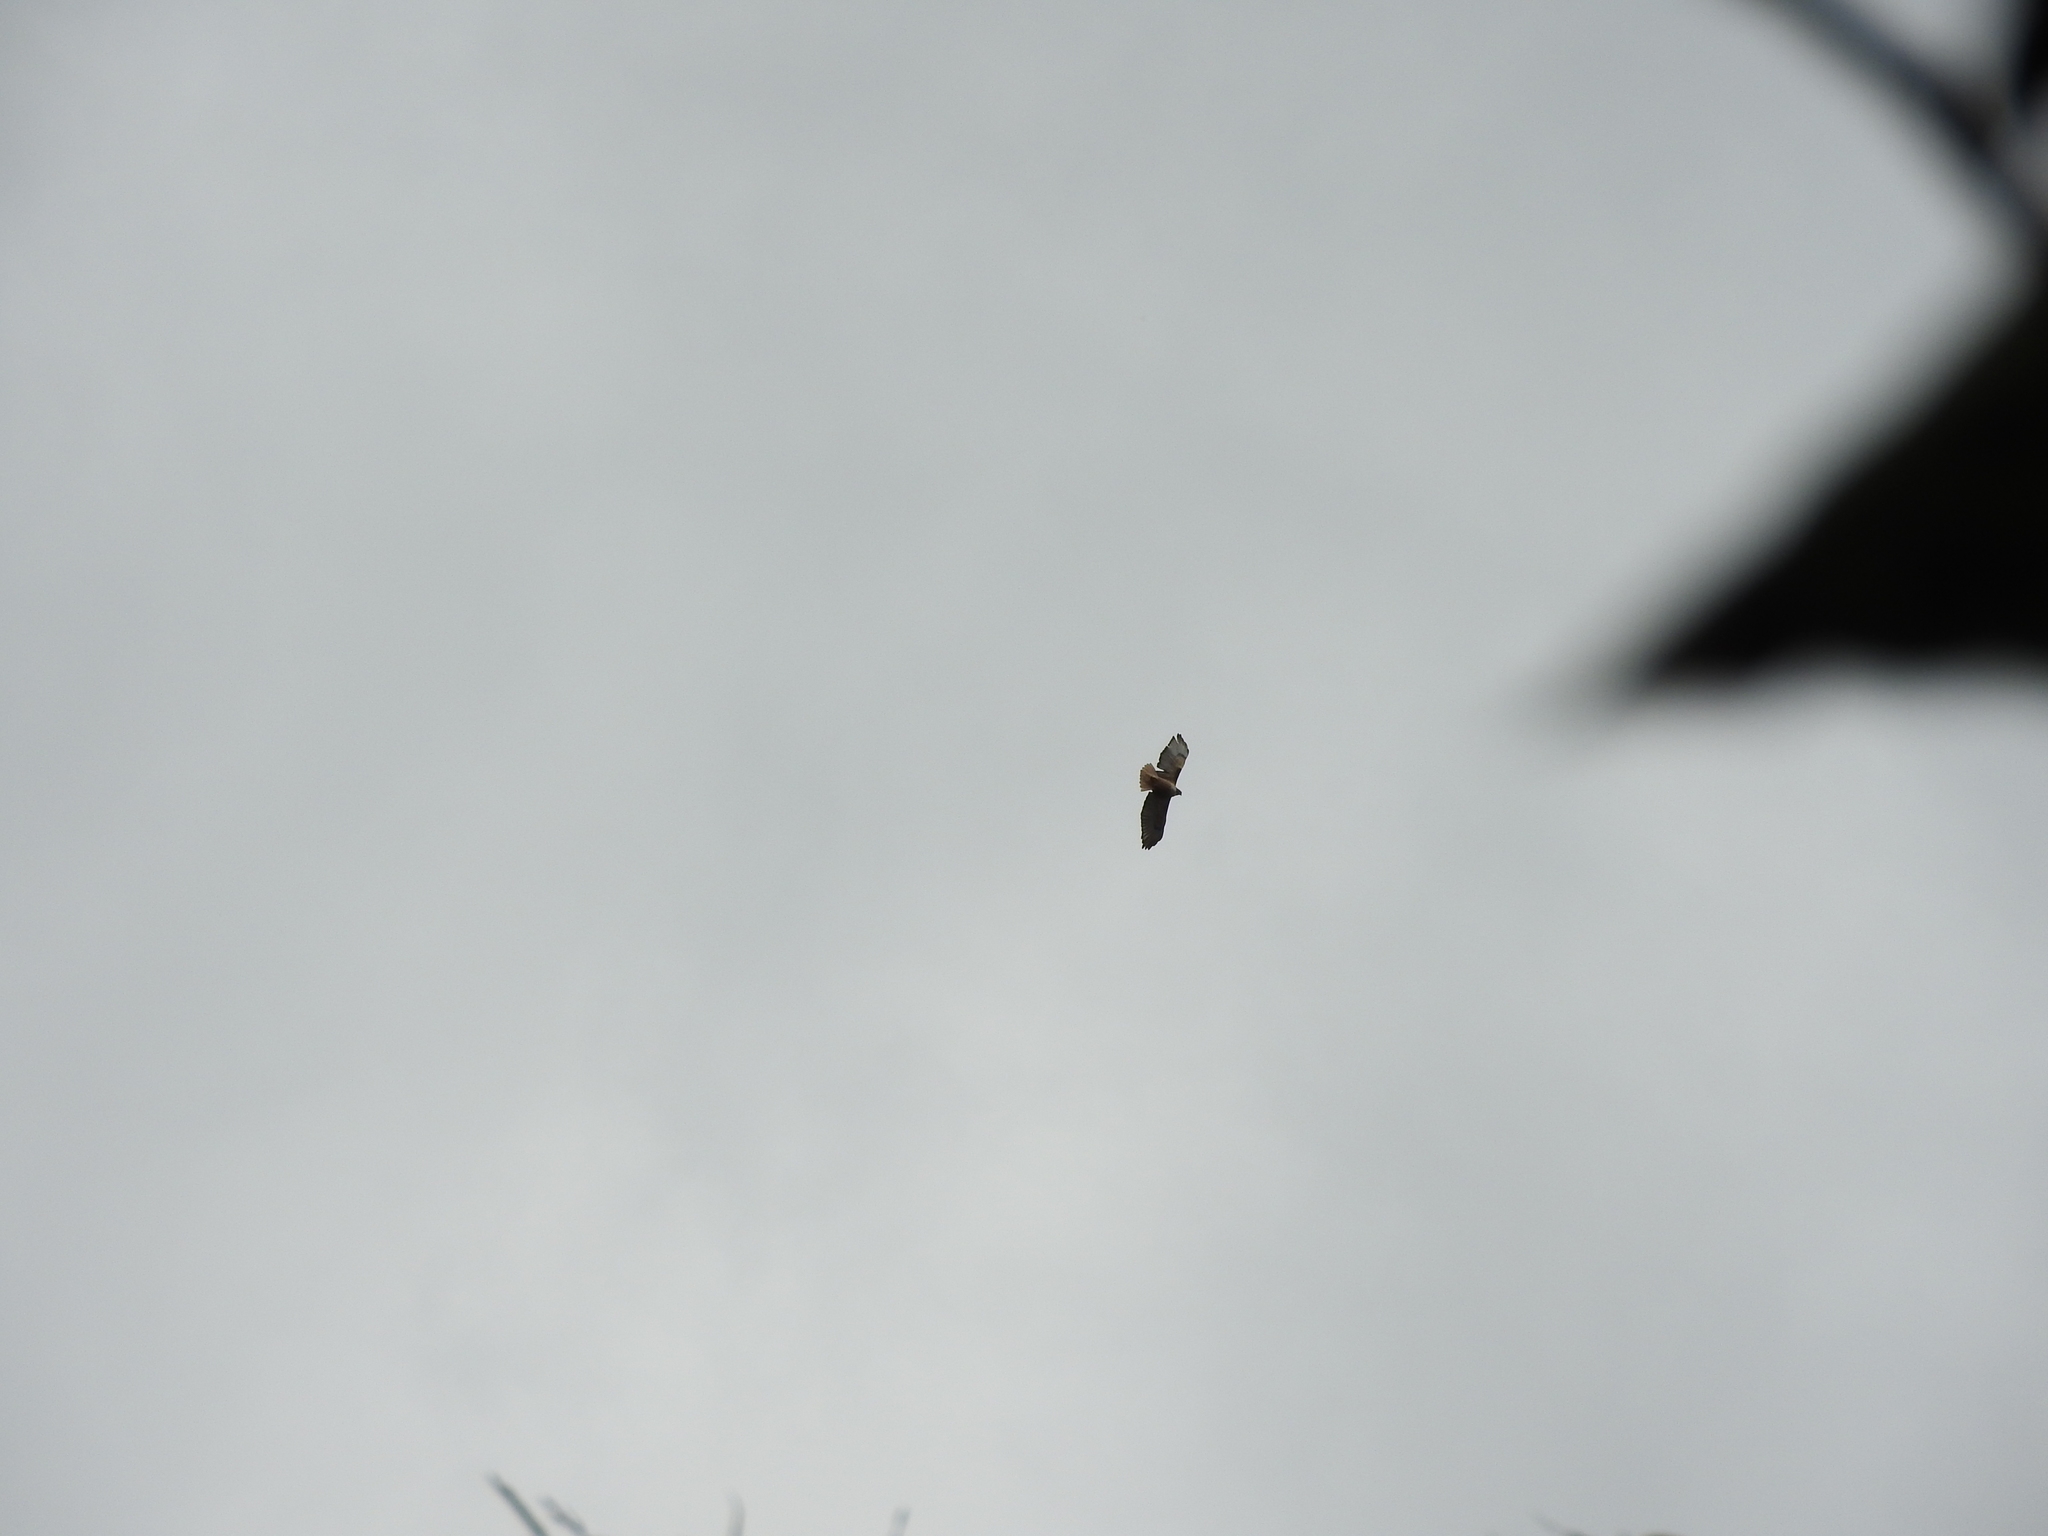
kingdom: Animalia
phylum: Chordata
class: Aves
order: Accipitriformes
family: Accipitridae
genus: Buteo
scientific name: Buteo jamaicensis
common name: Red-tailed hawk
